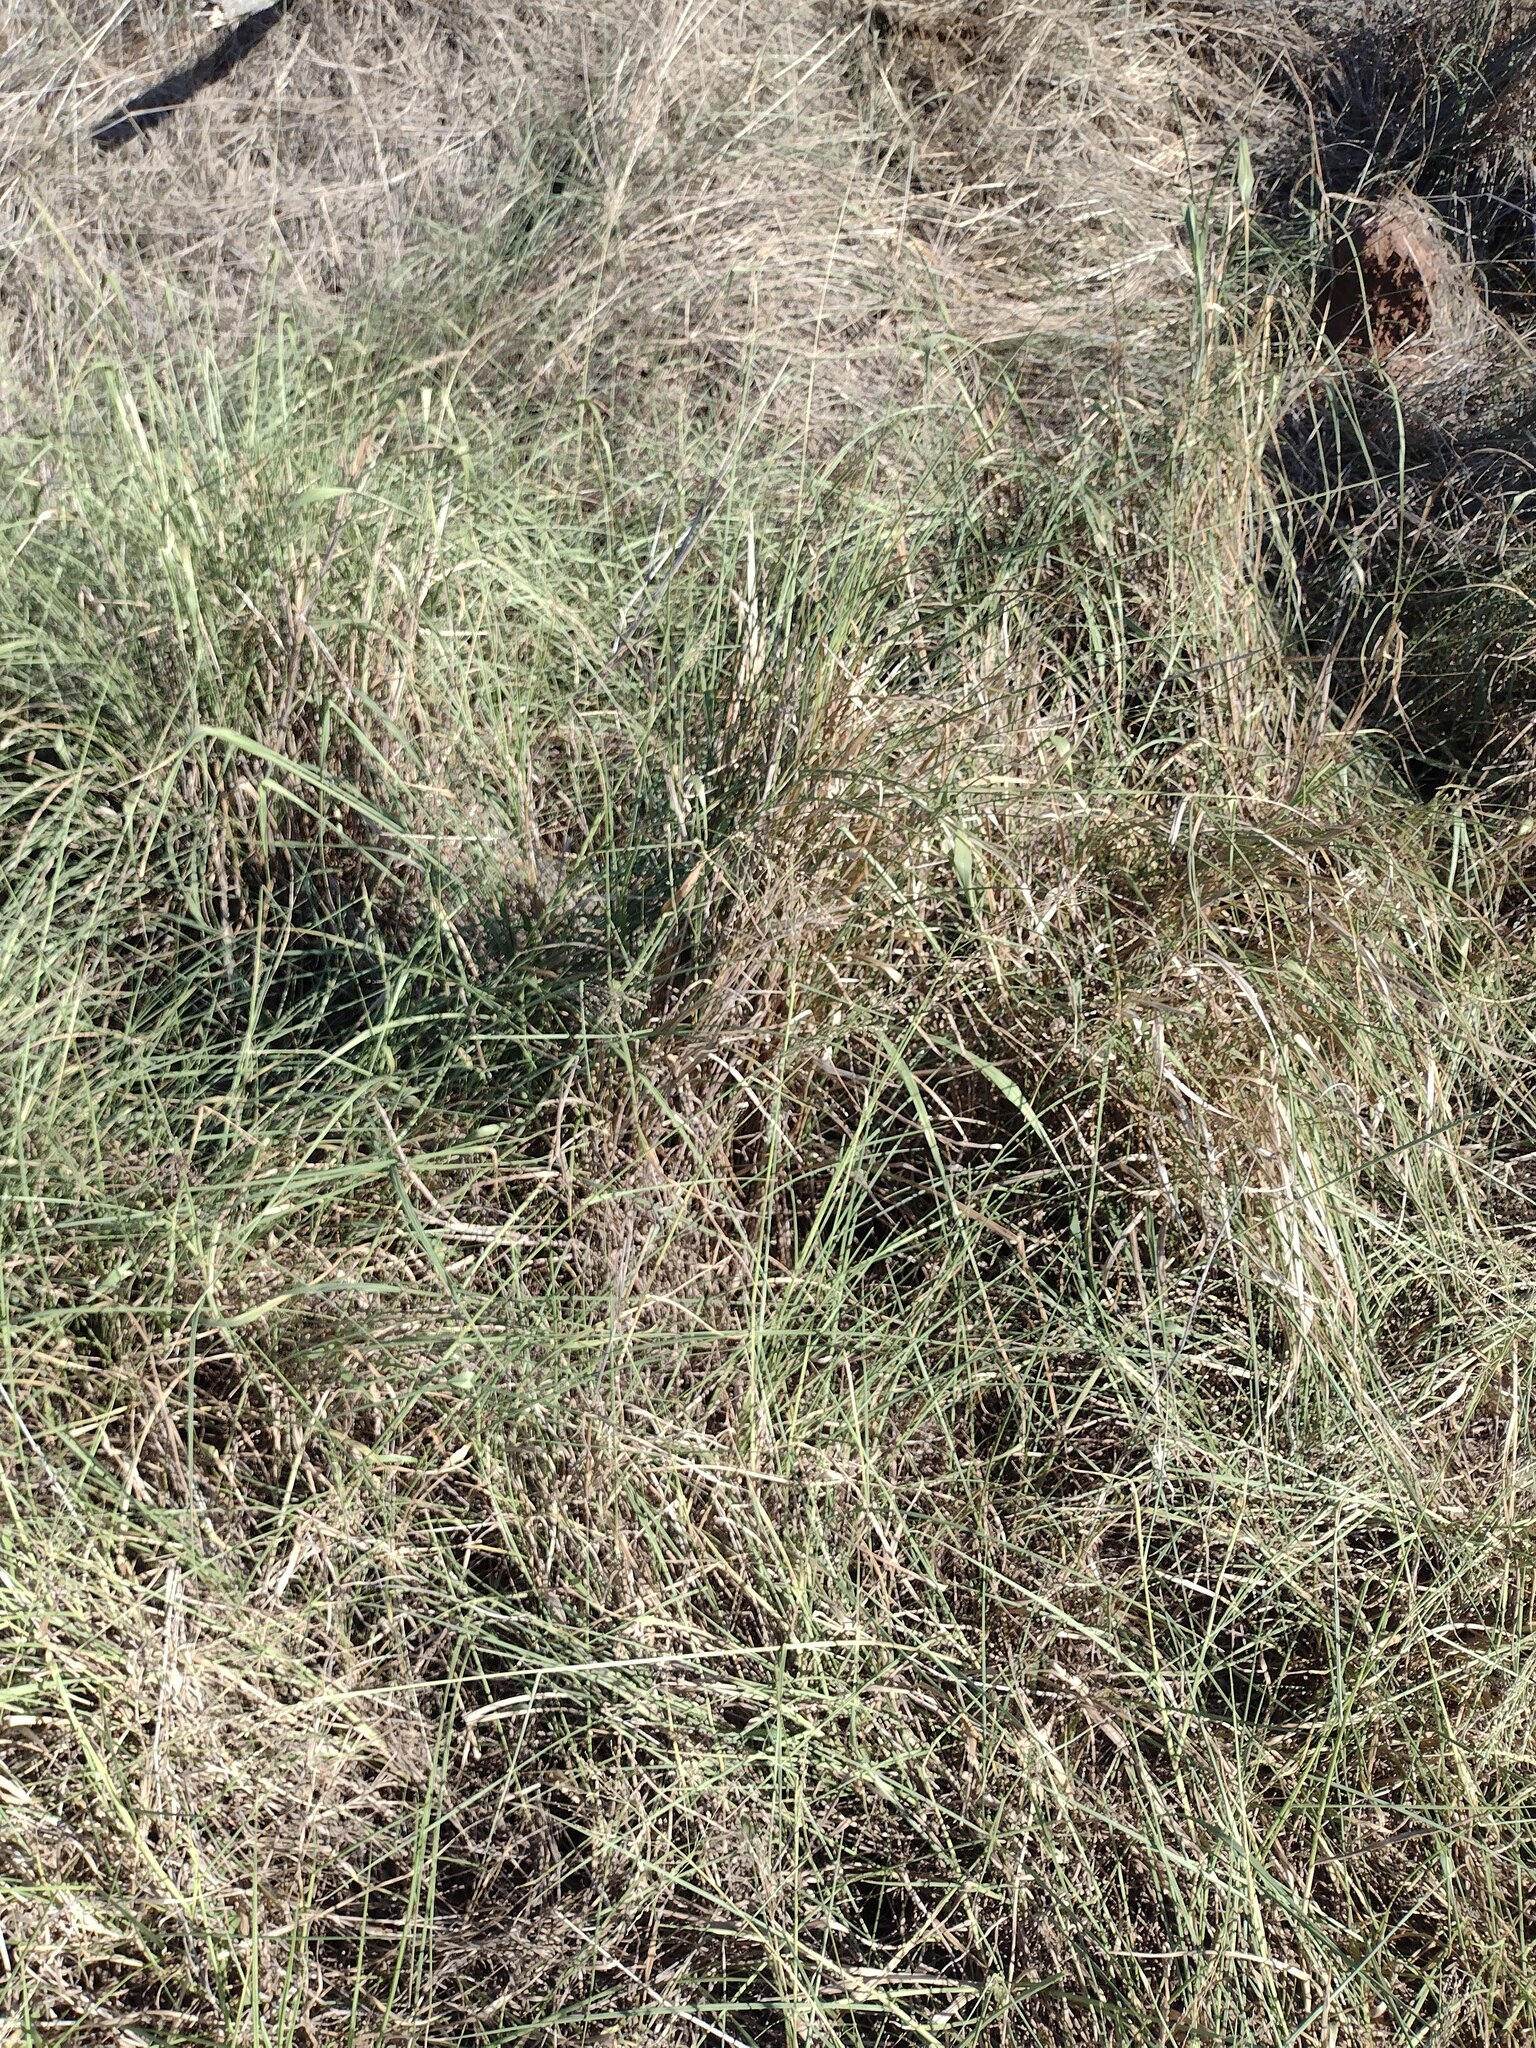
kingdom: Plantae
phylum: Tracheophyta
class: Liliopsida
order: Poales
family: Poaceae
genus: Megathyrsus
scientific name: Megathyrsus maximus
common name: Guineagrass
